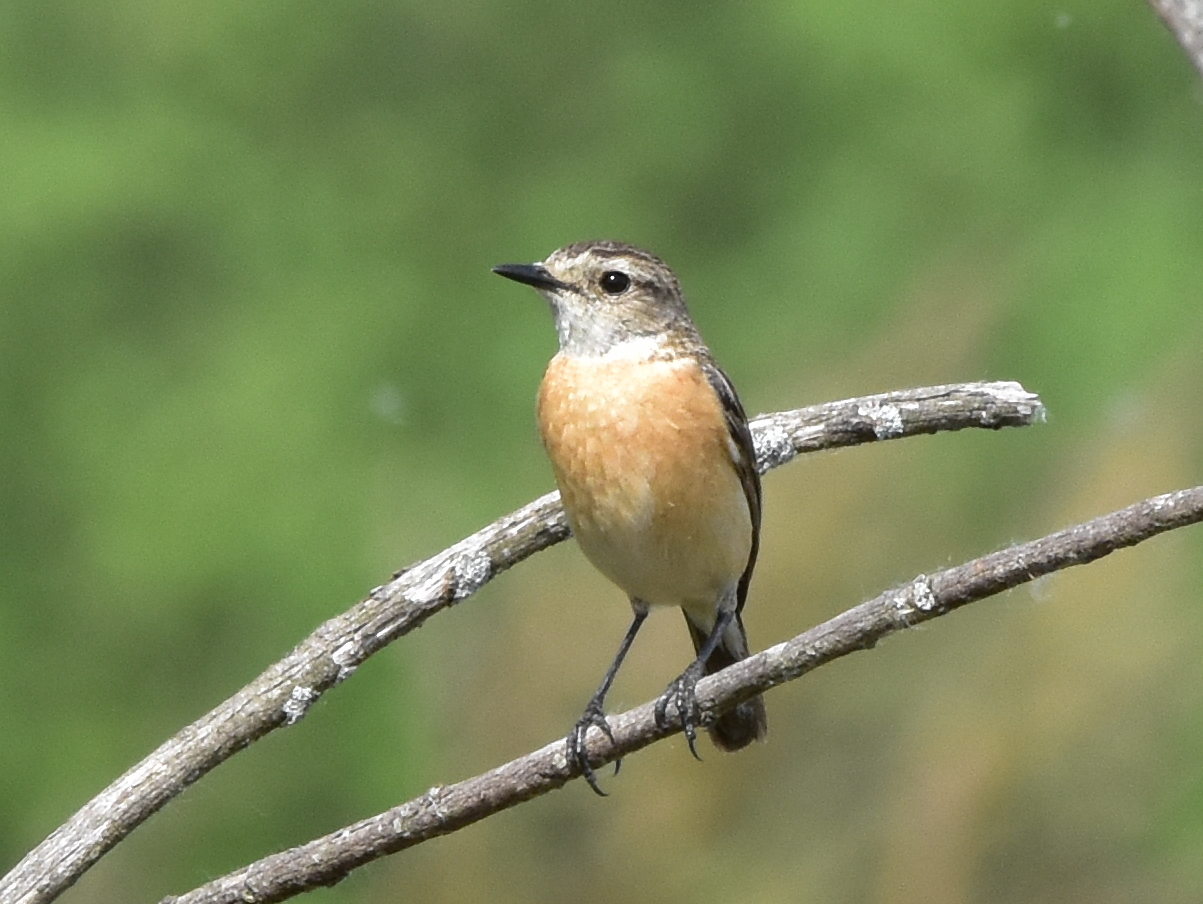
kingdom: Animalia
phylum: Chordata
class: Aves
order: Passeriformes
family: Muscicapidae
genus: Saxicola
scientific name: Saxicola maurus
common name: Siberian stonechat
